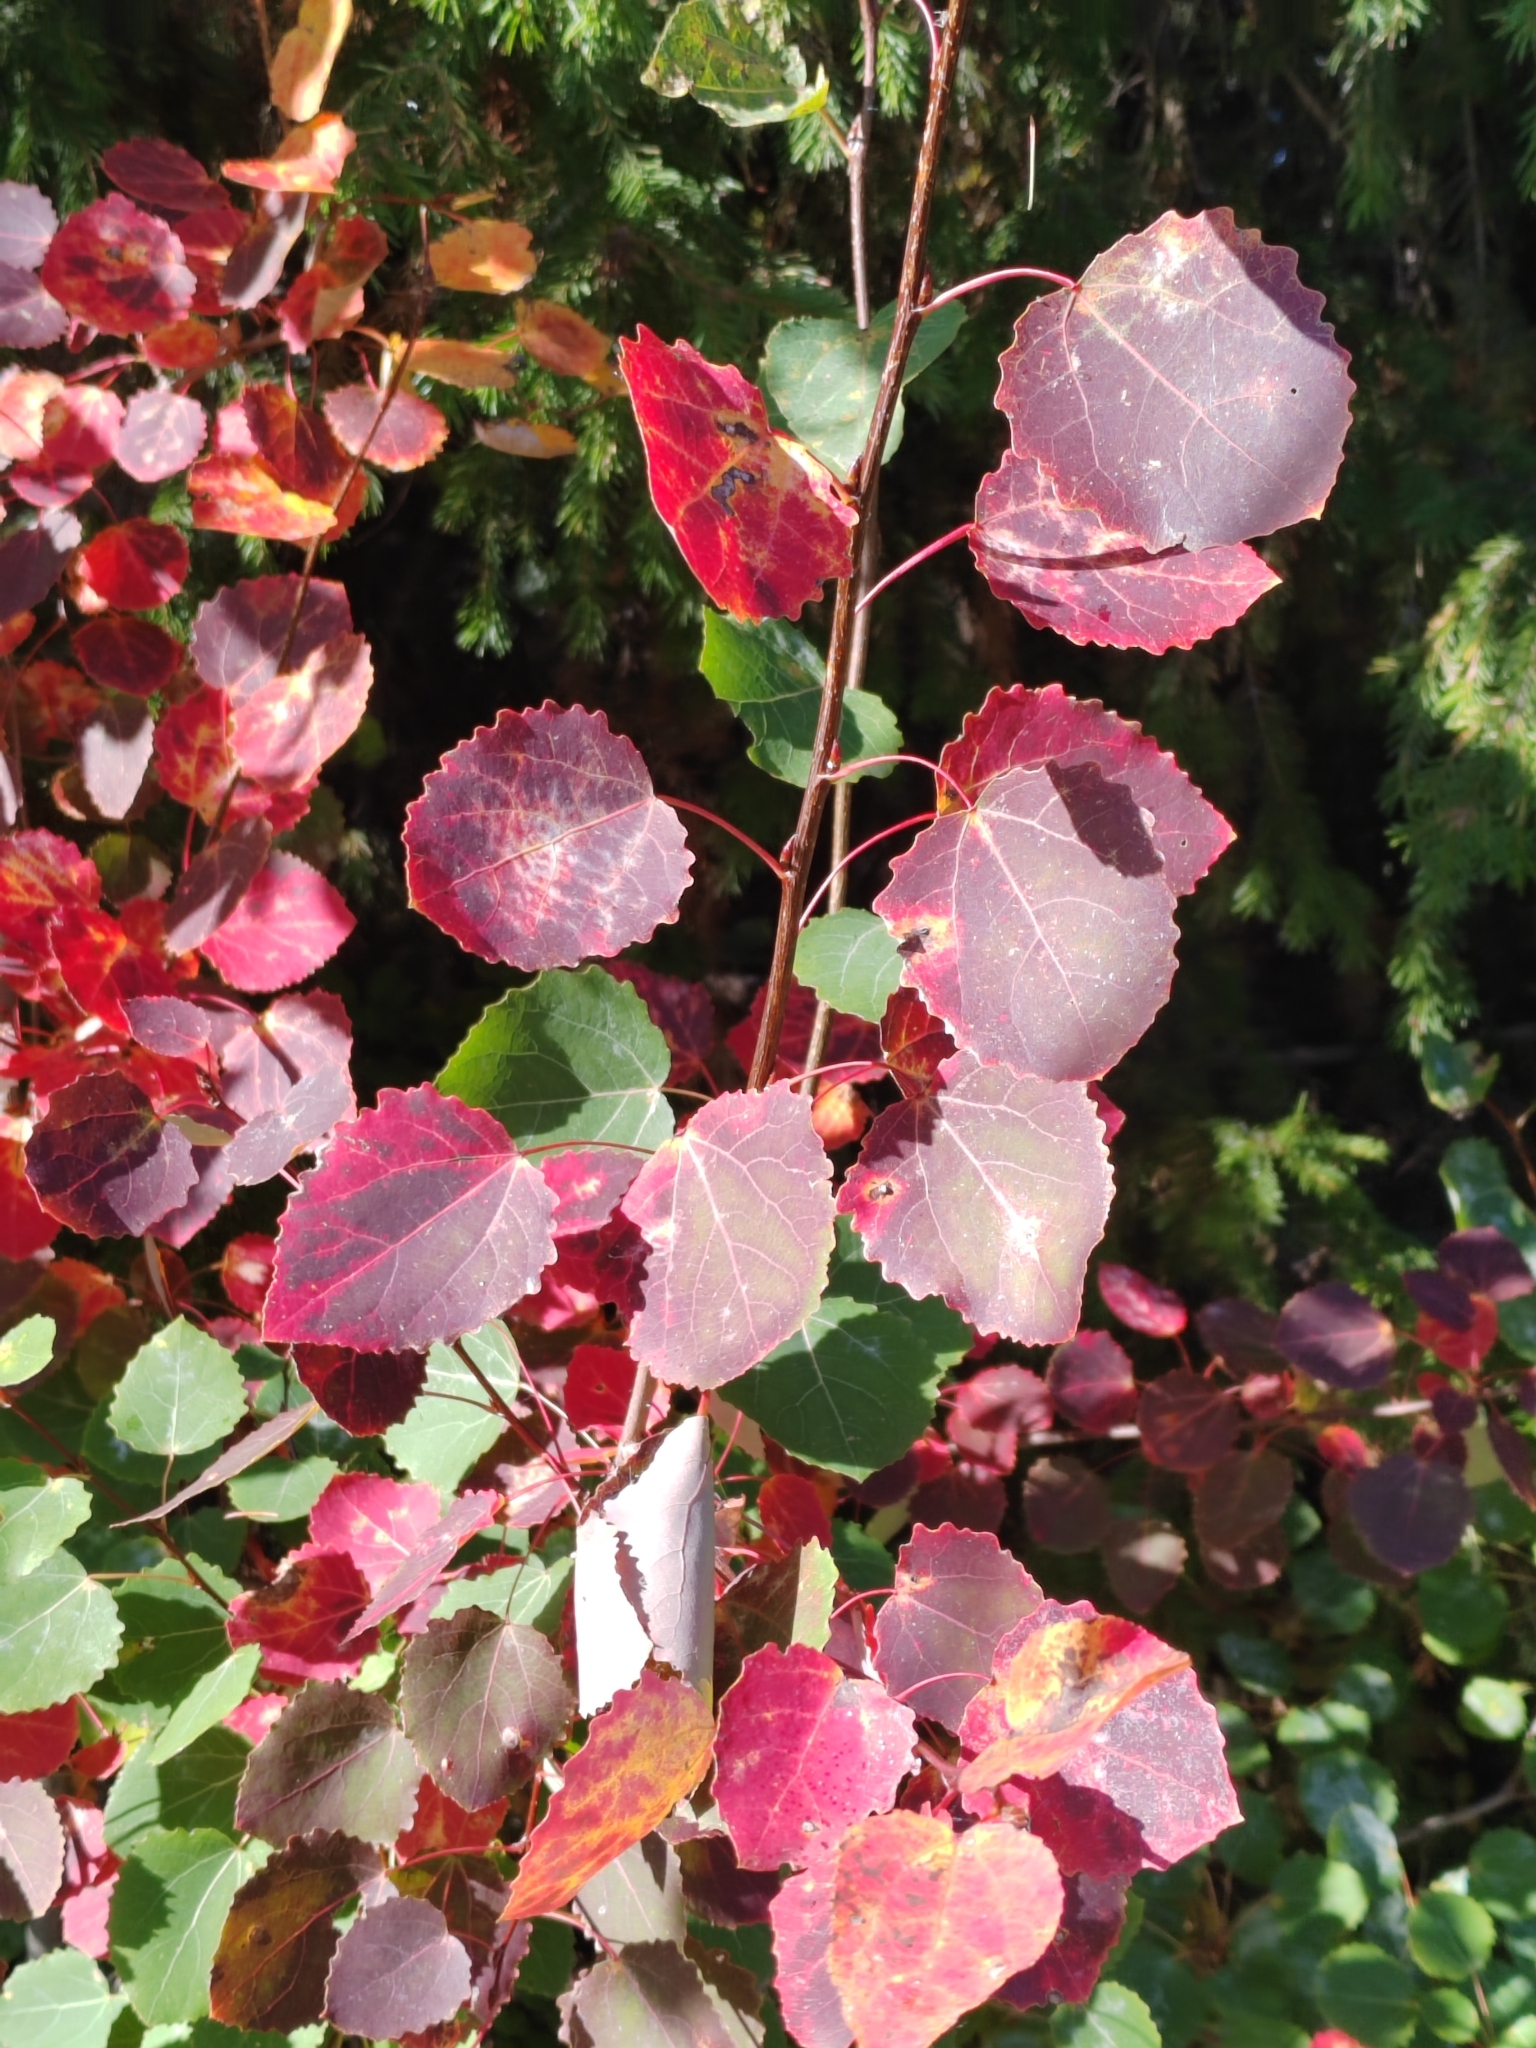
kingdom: Plantae
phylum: Tracheophyta
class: Magnoliopsida
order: Malpighiales
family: Salicaceae
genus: Populus
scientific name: Populus tremula
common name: European aspen
